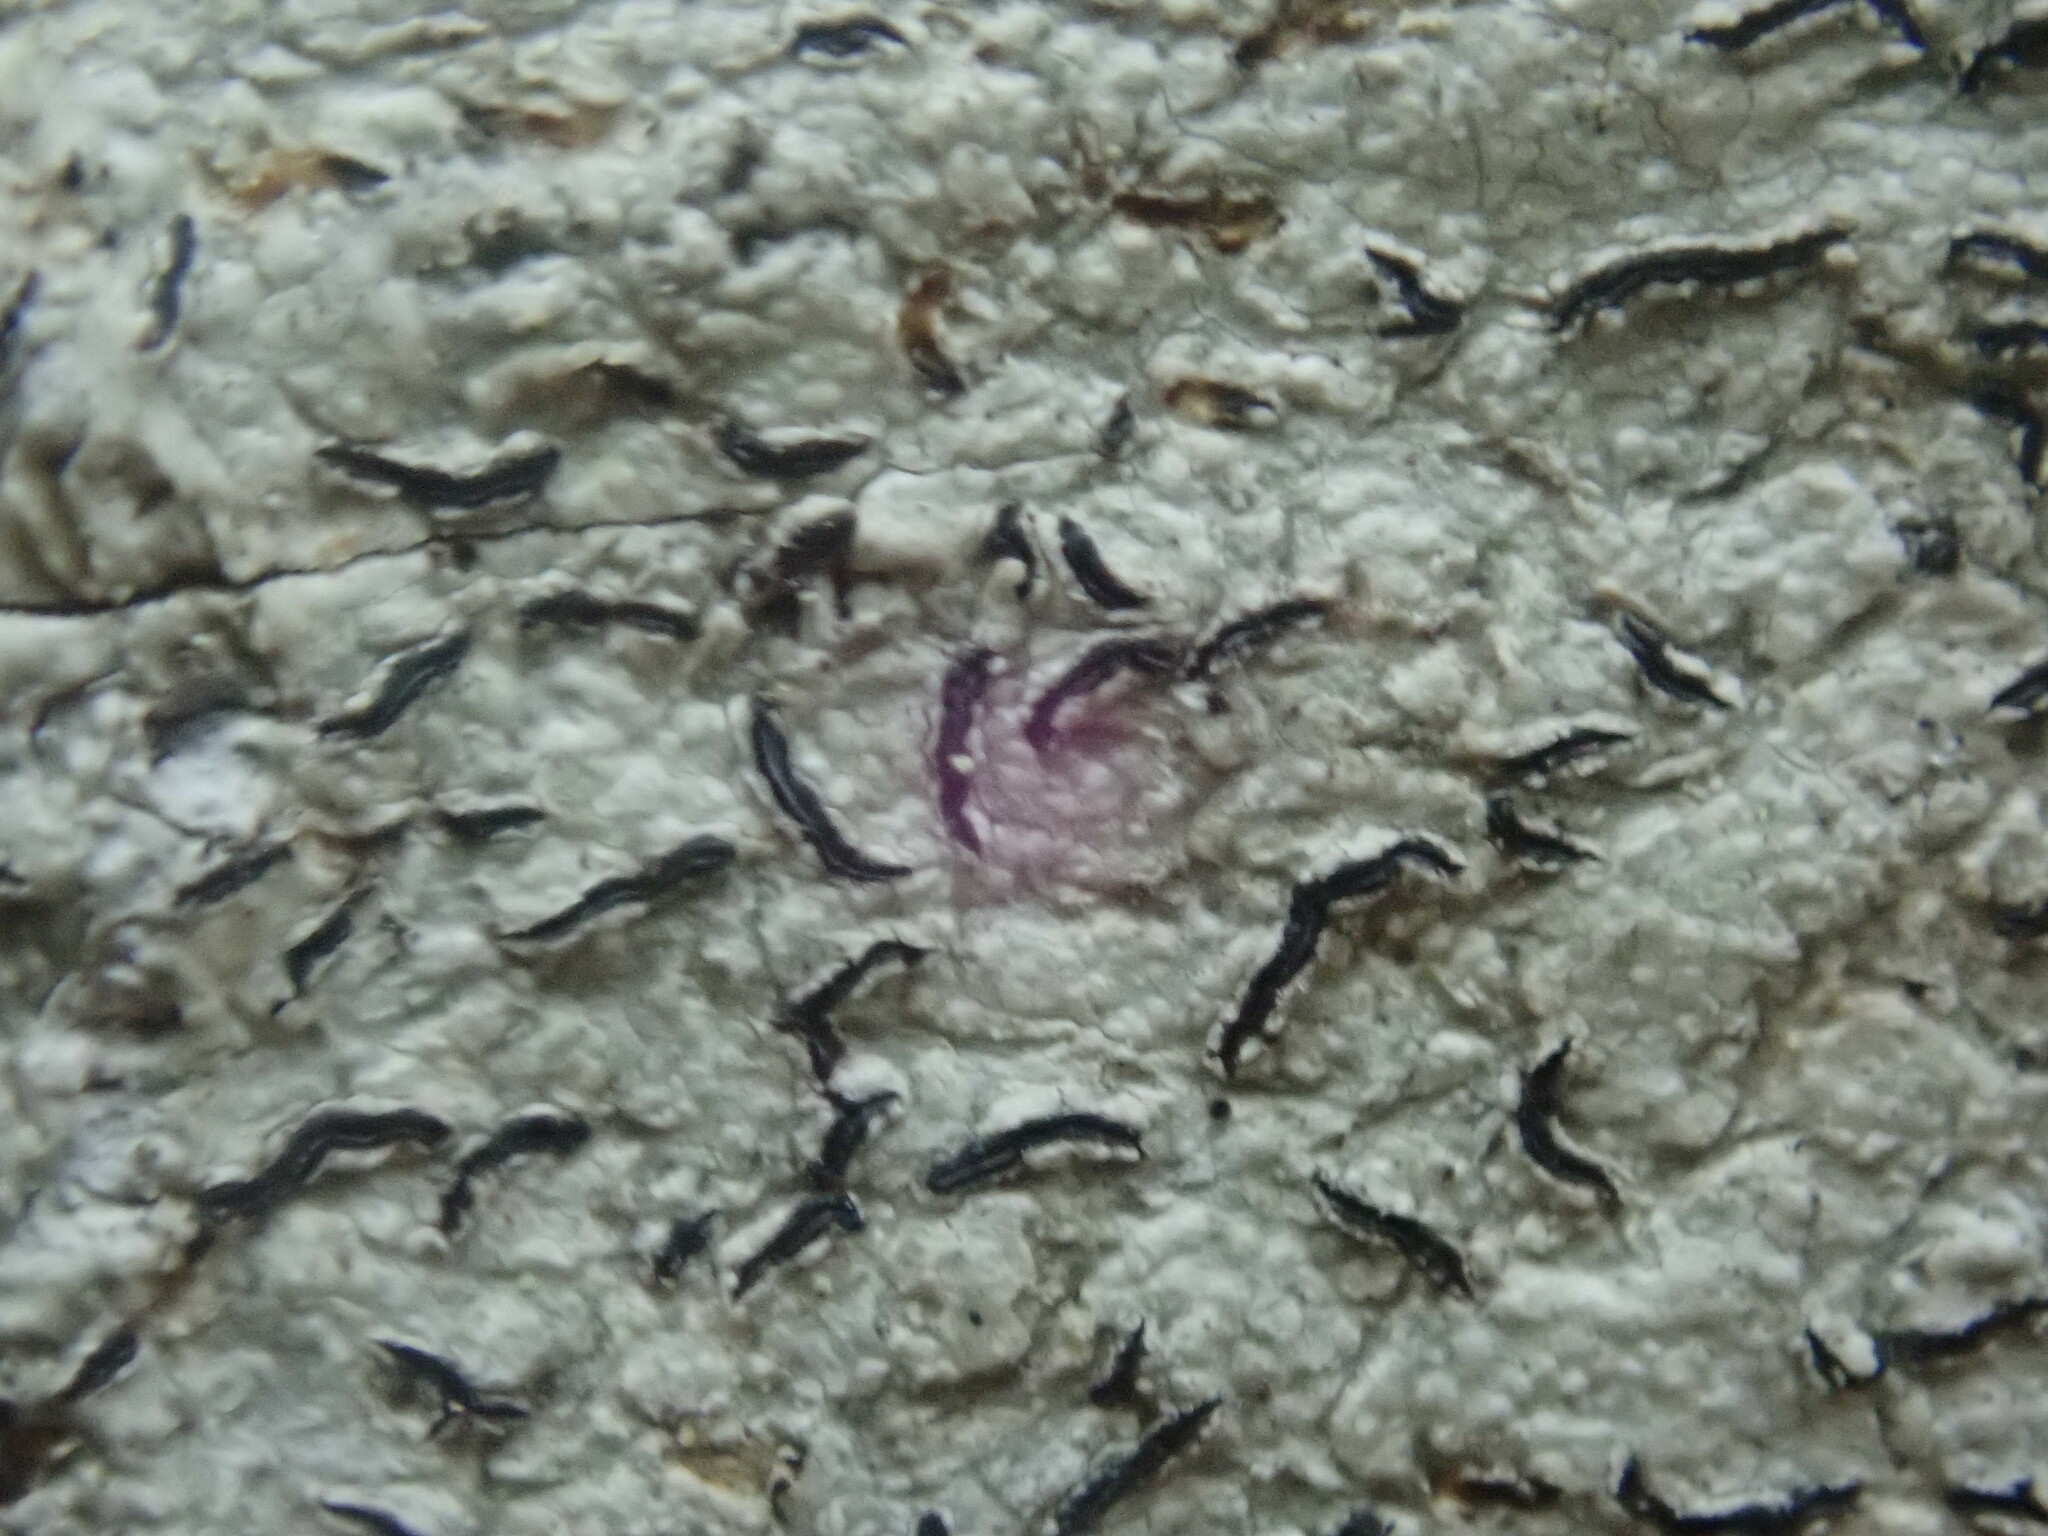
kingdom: Fungi
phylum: Ascomycota
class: Lecanoromycetes
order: Ostropales
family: Graphidaceae
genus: Graphis
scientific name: Graphis scripta
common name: Script lichen
